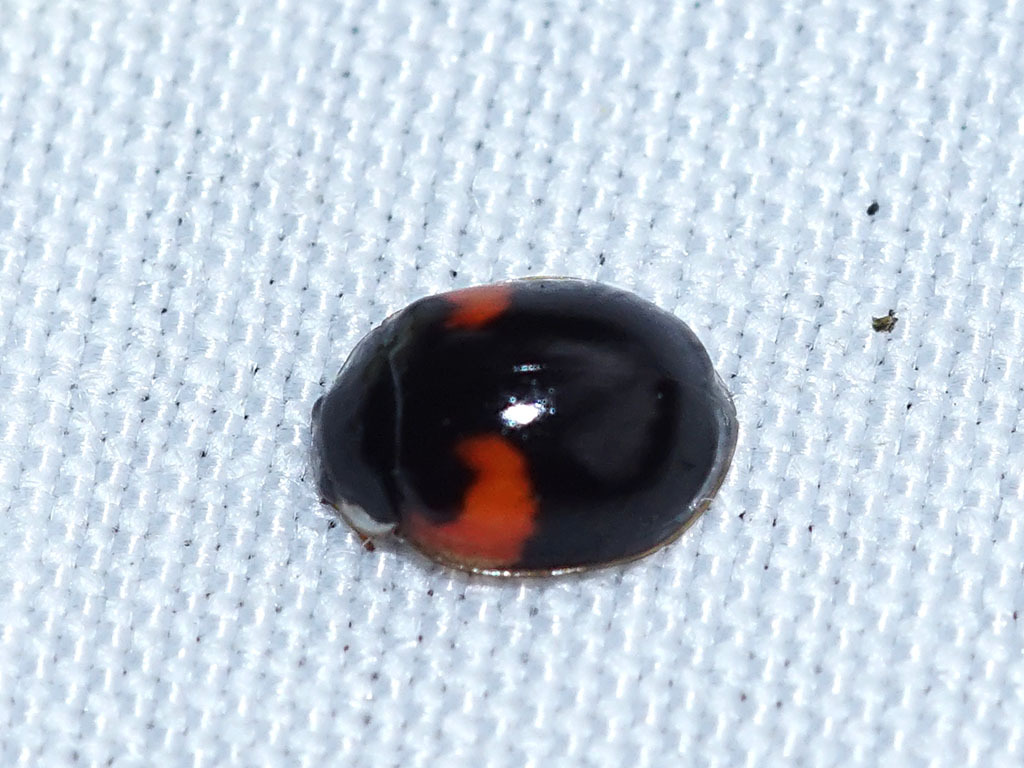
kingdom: Animalia
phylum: Arthropoda
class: Insecta
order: Coleoptera
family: Coccinellidae
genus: Adalia
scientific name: Adalia decempunctata
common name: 10-spot ladybird
